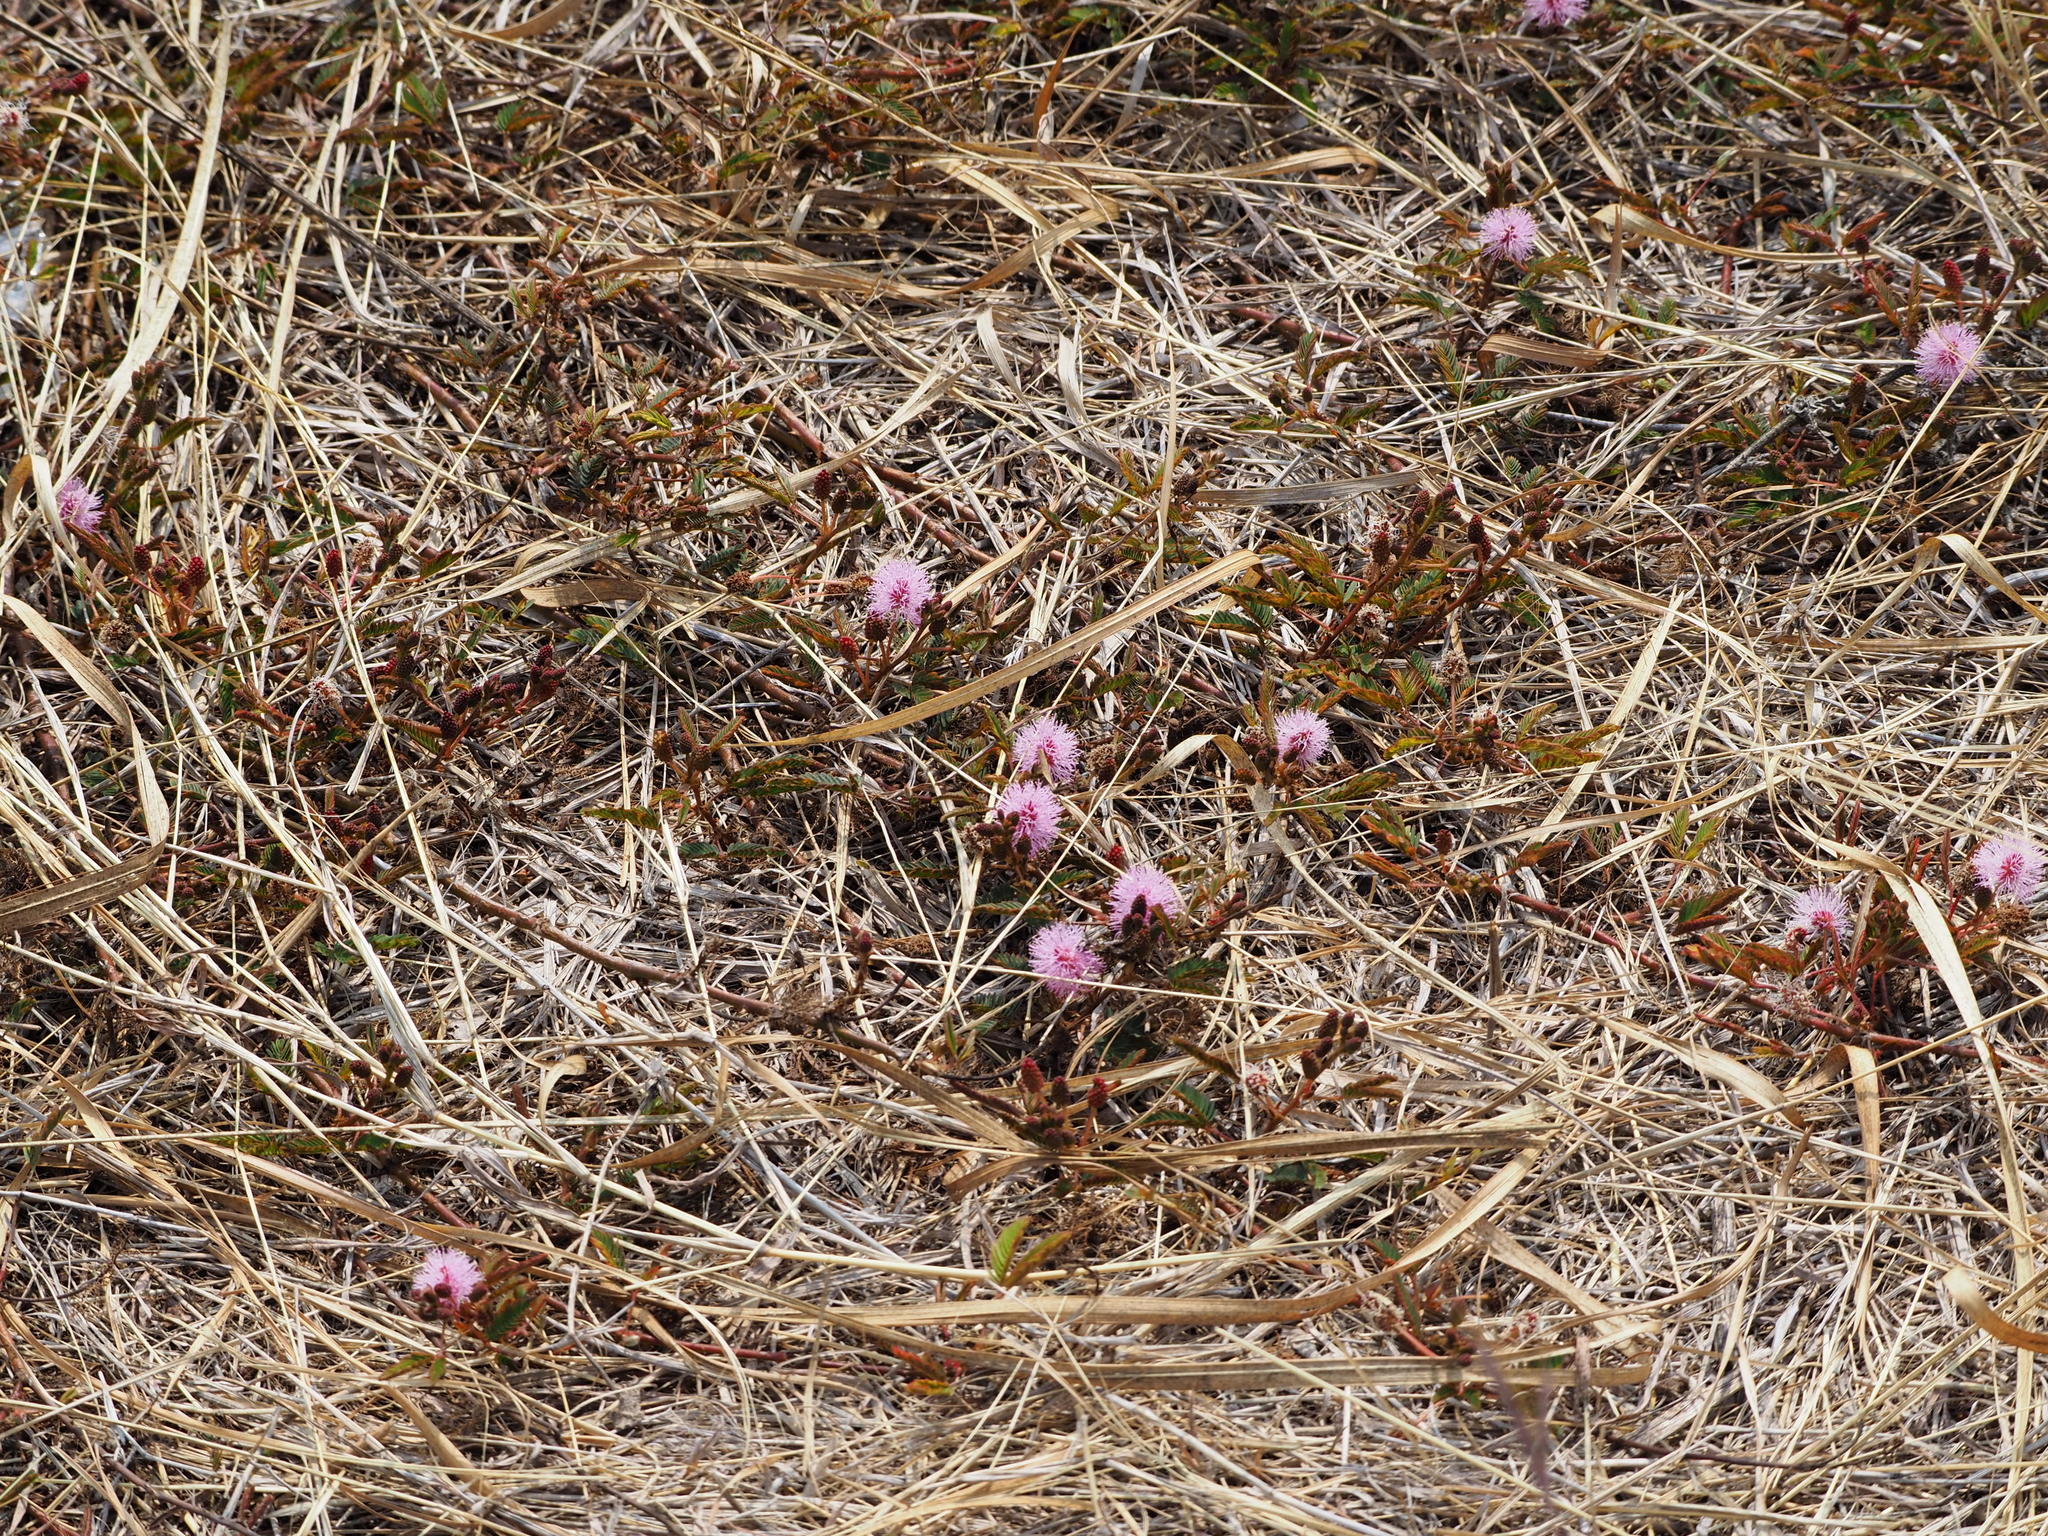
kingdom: Plantae
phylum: Tracheophyta
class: Magnoliopsida
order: Fabales
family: Fabaceae
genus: Mimosa
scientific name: Mimosa pudica
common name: Sensitive plant
